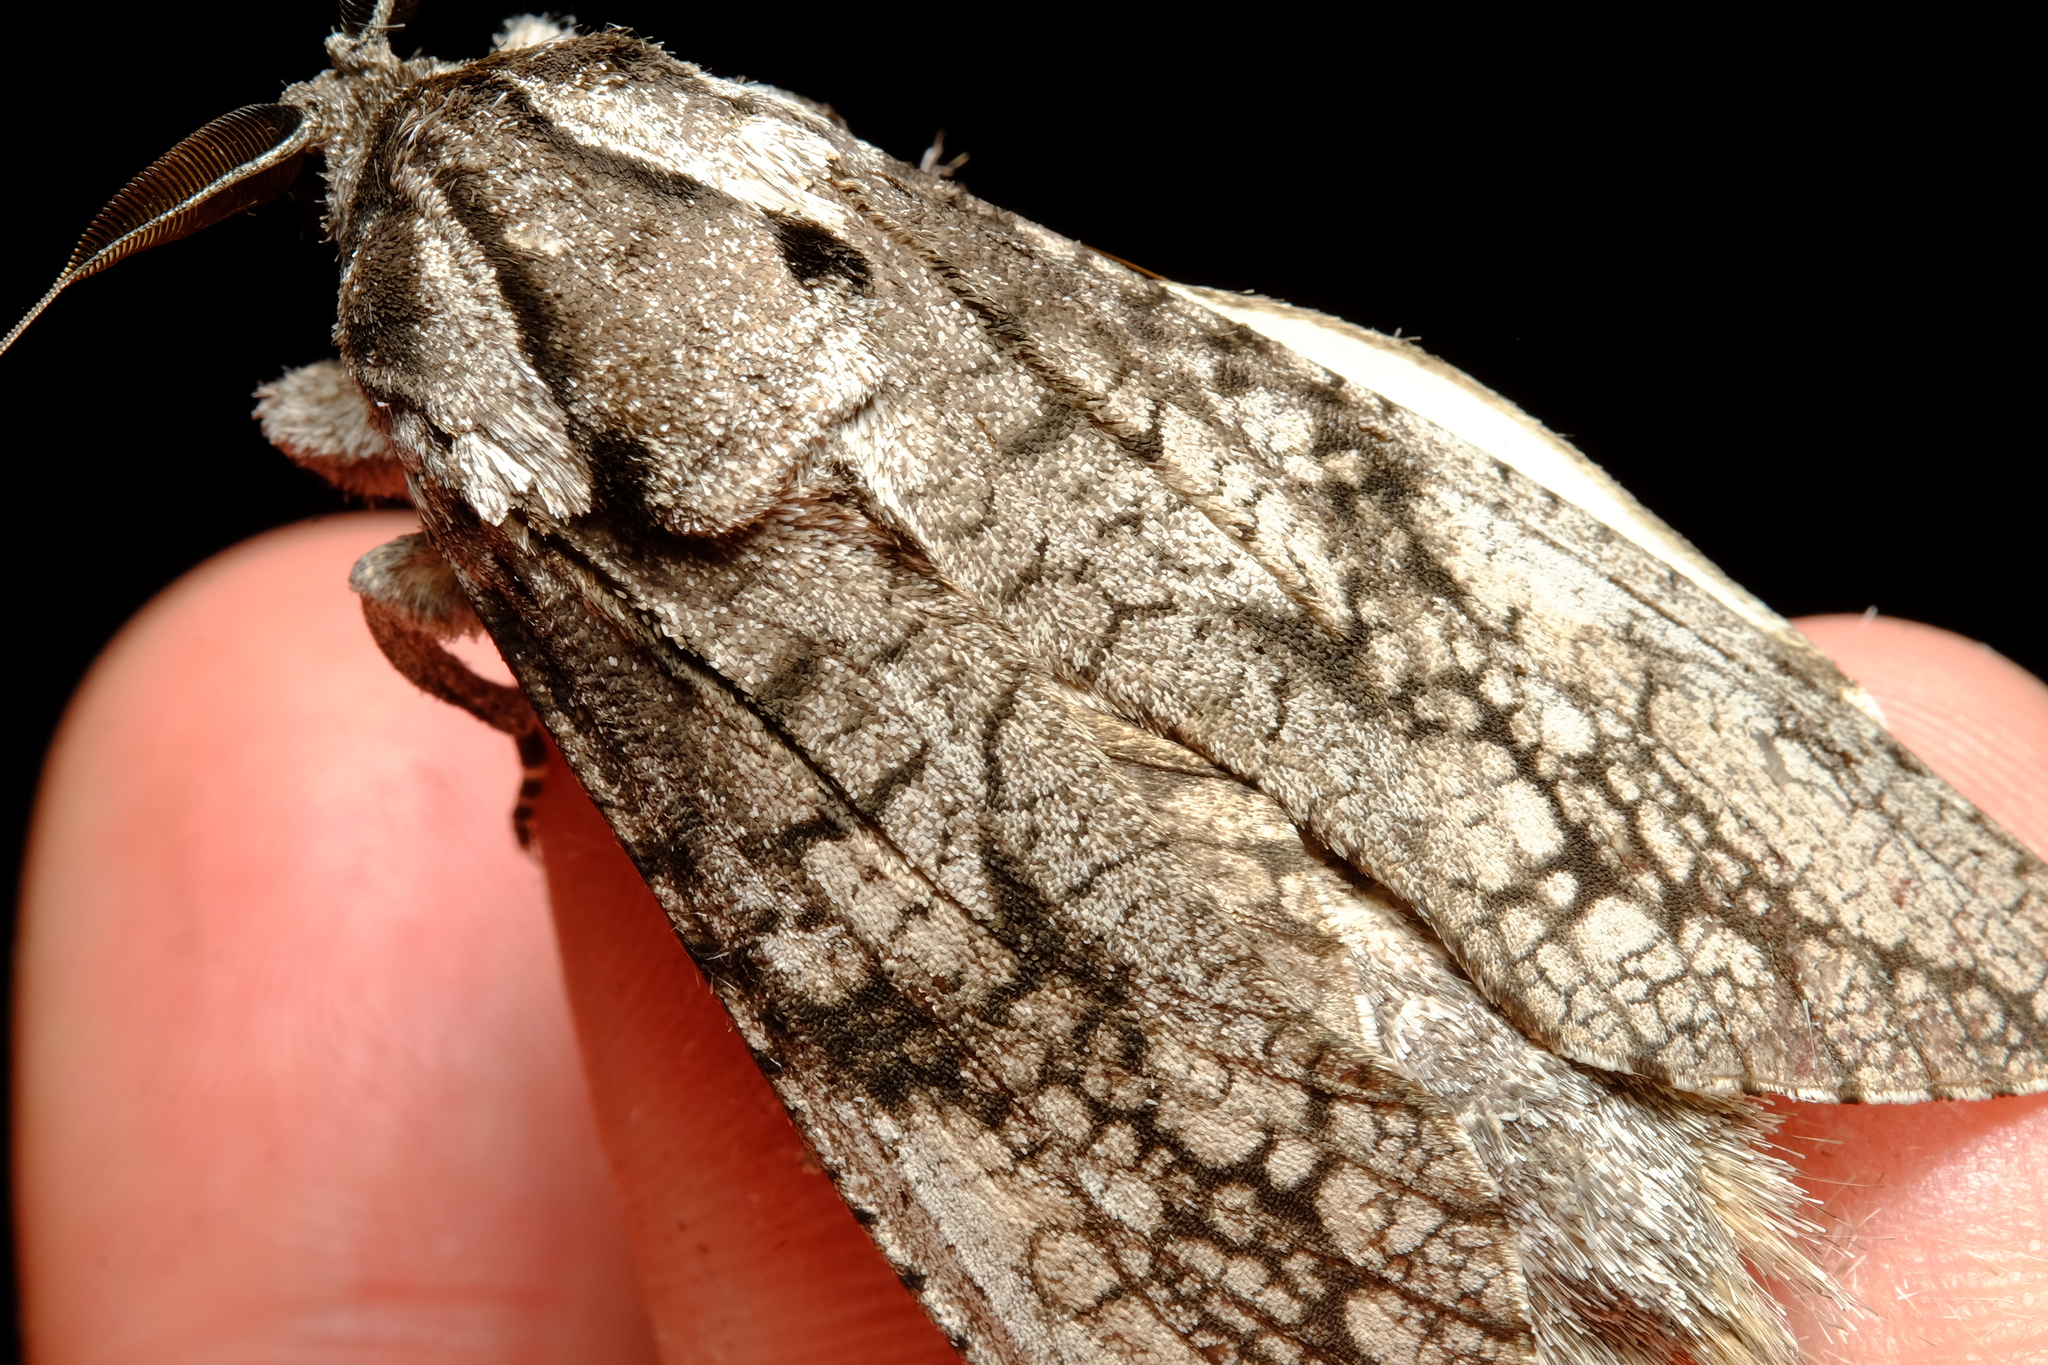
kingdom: Animalia
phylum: Arthropoda
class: Insecta
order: Lepidoptera
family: Cossidae
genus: Endoxyla
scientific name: Endoxyla lichenea
